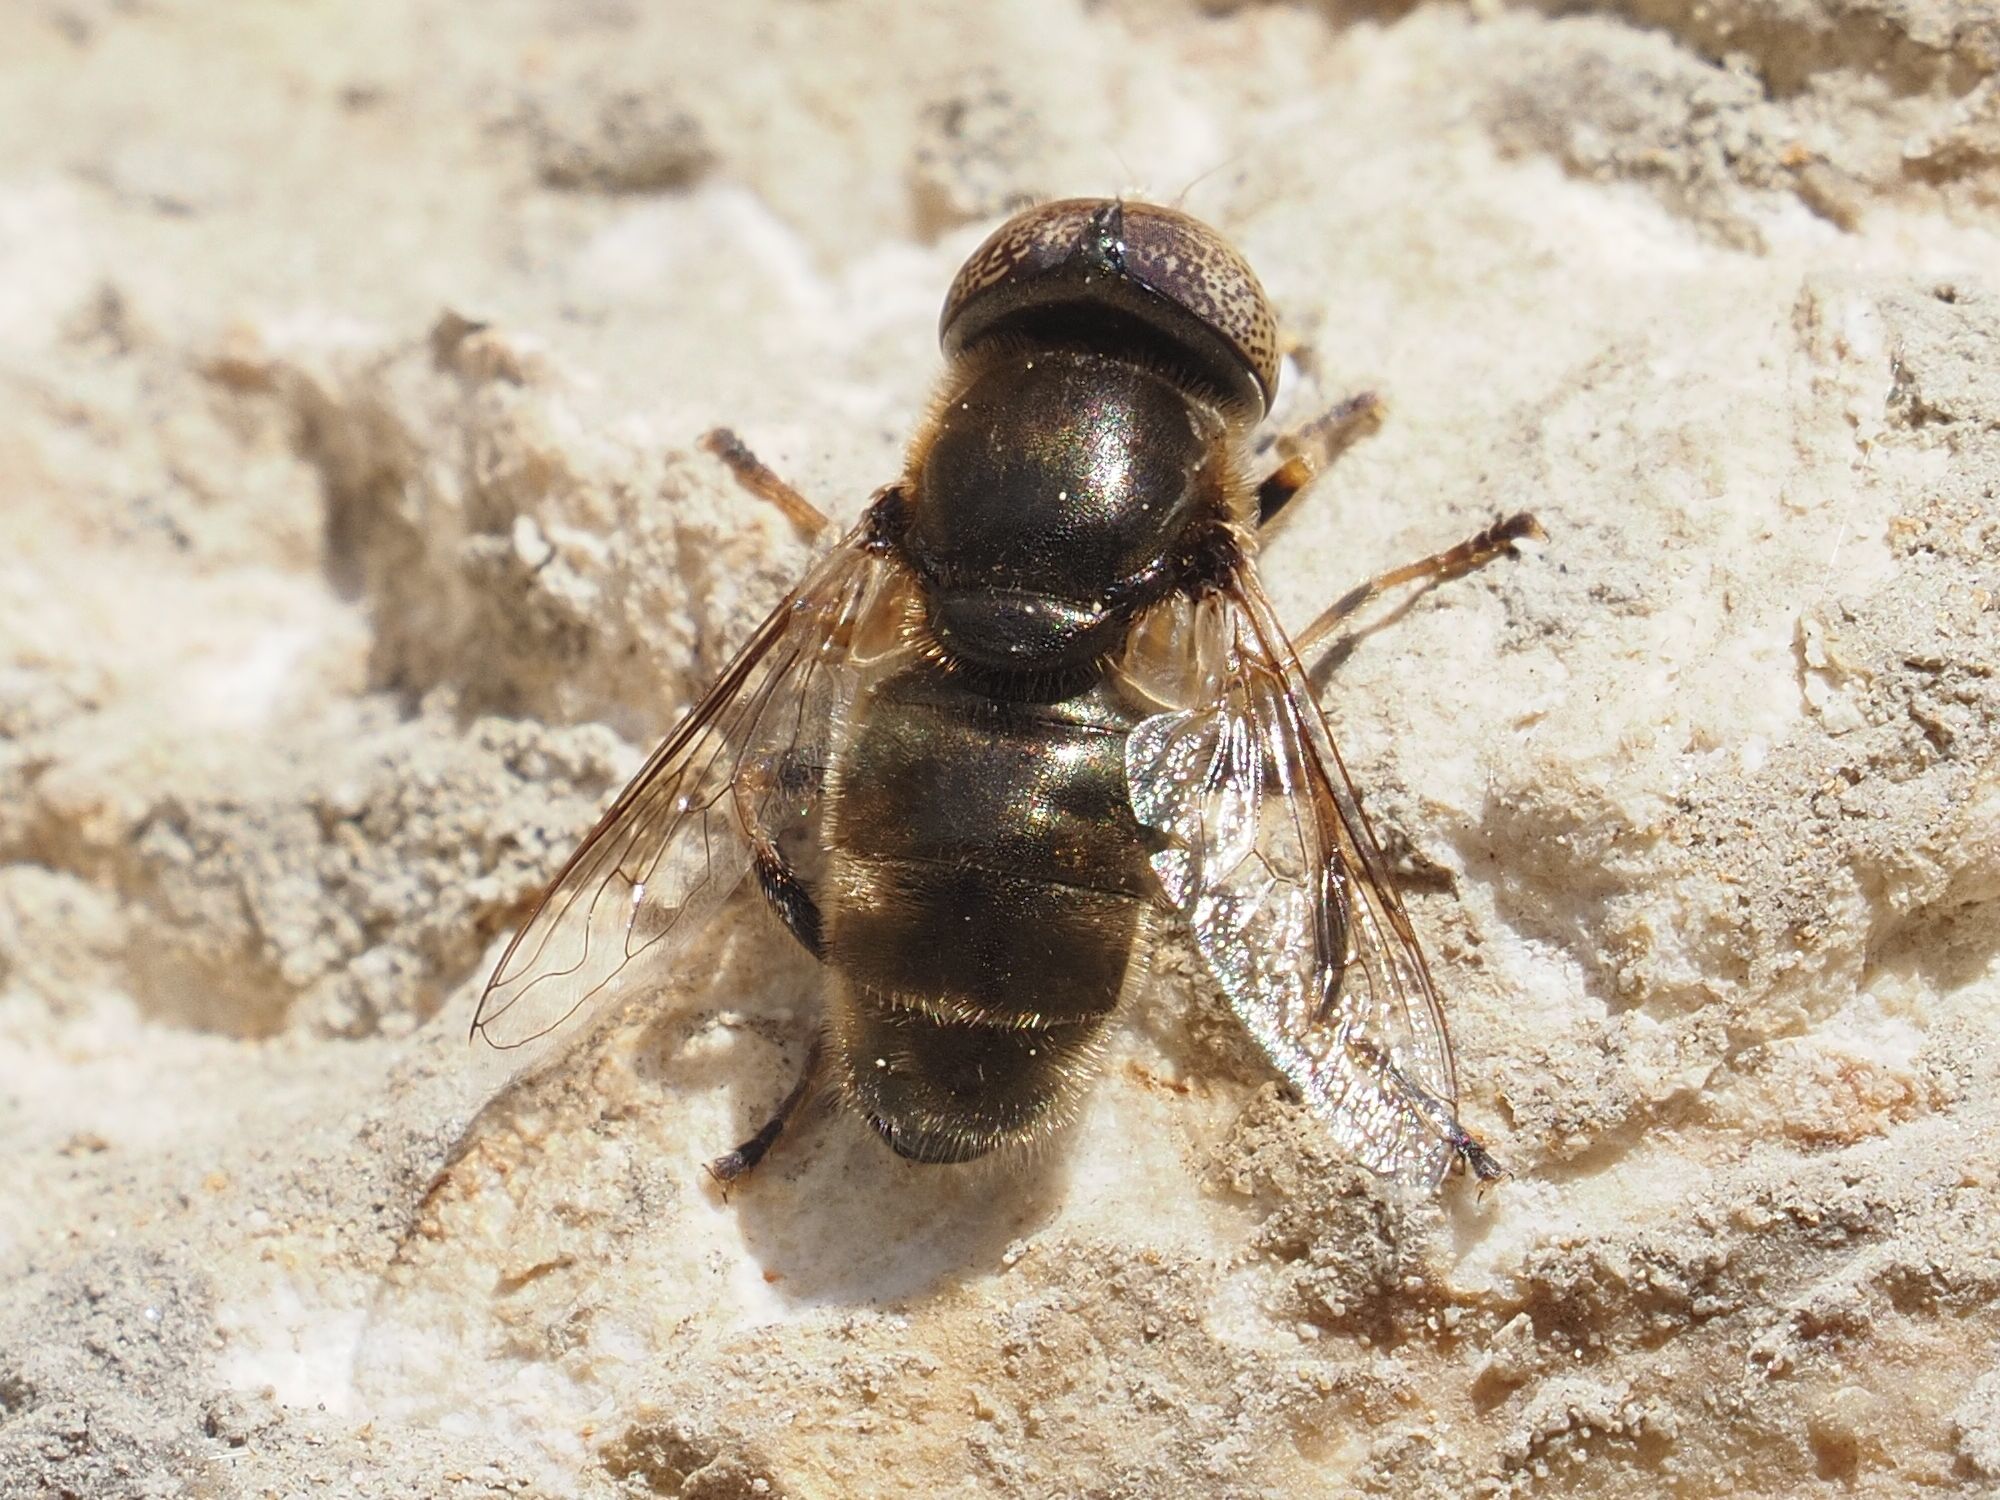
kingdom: Animalia
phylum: Arthropoda
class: Insecta
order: Diptera
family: Syrphidae
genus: Eristalinus
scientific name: Eristalinus aeneus
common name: Syrphid fly
